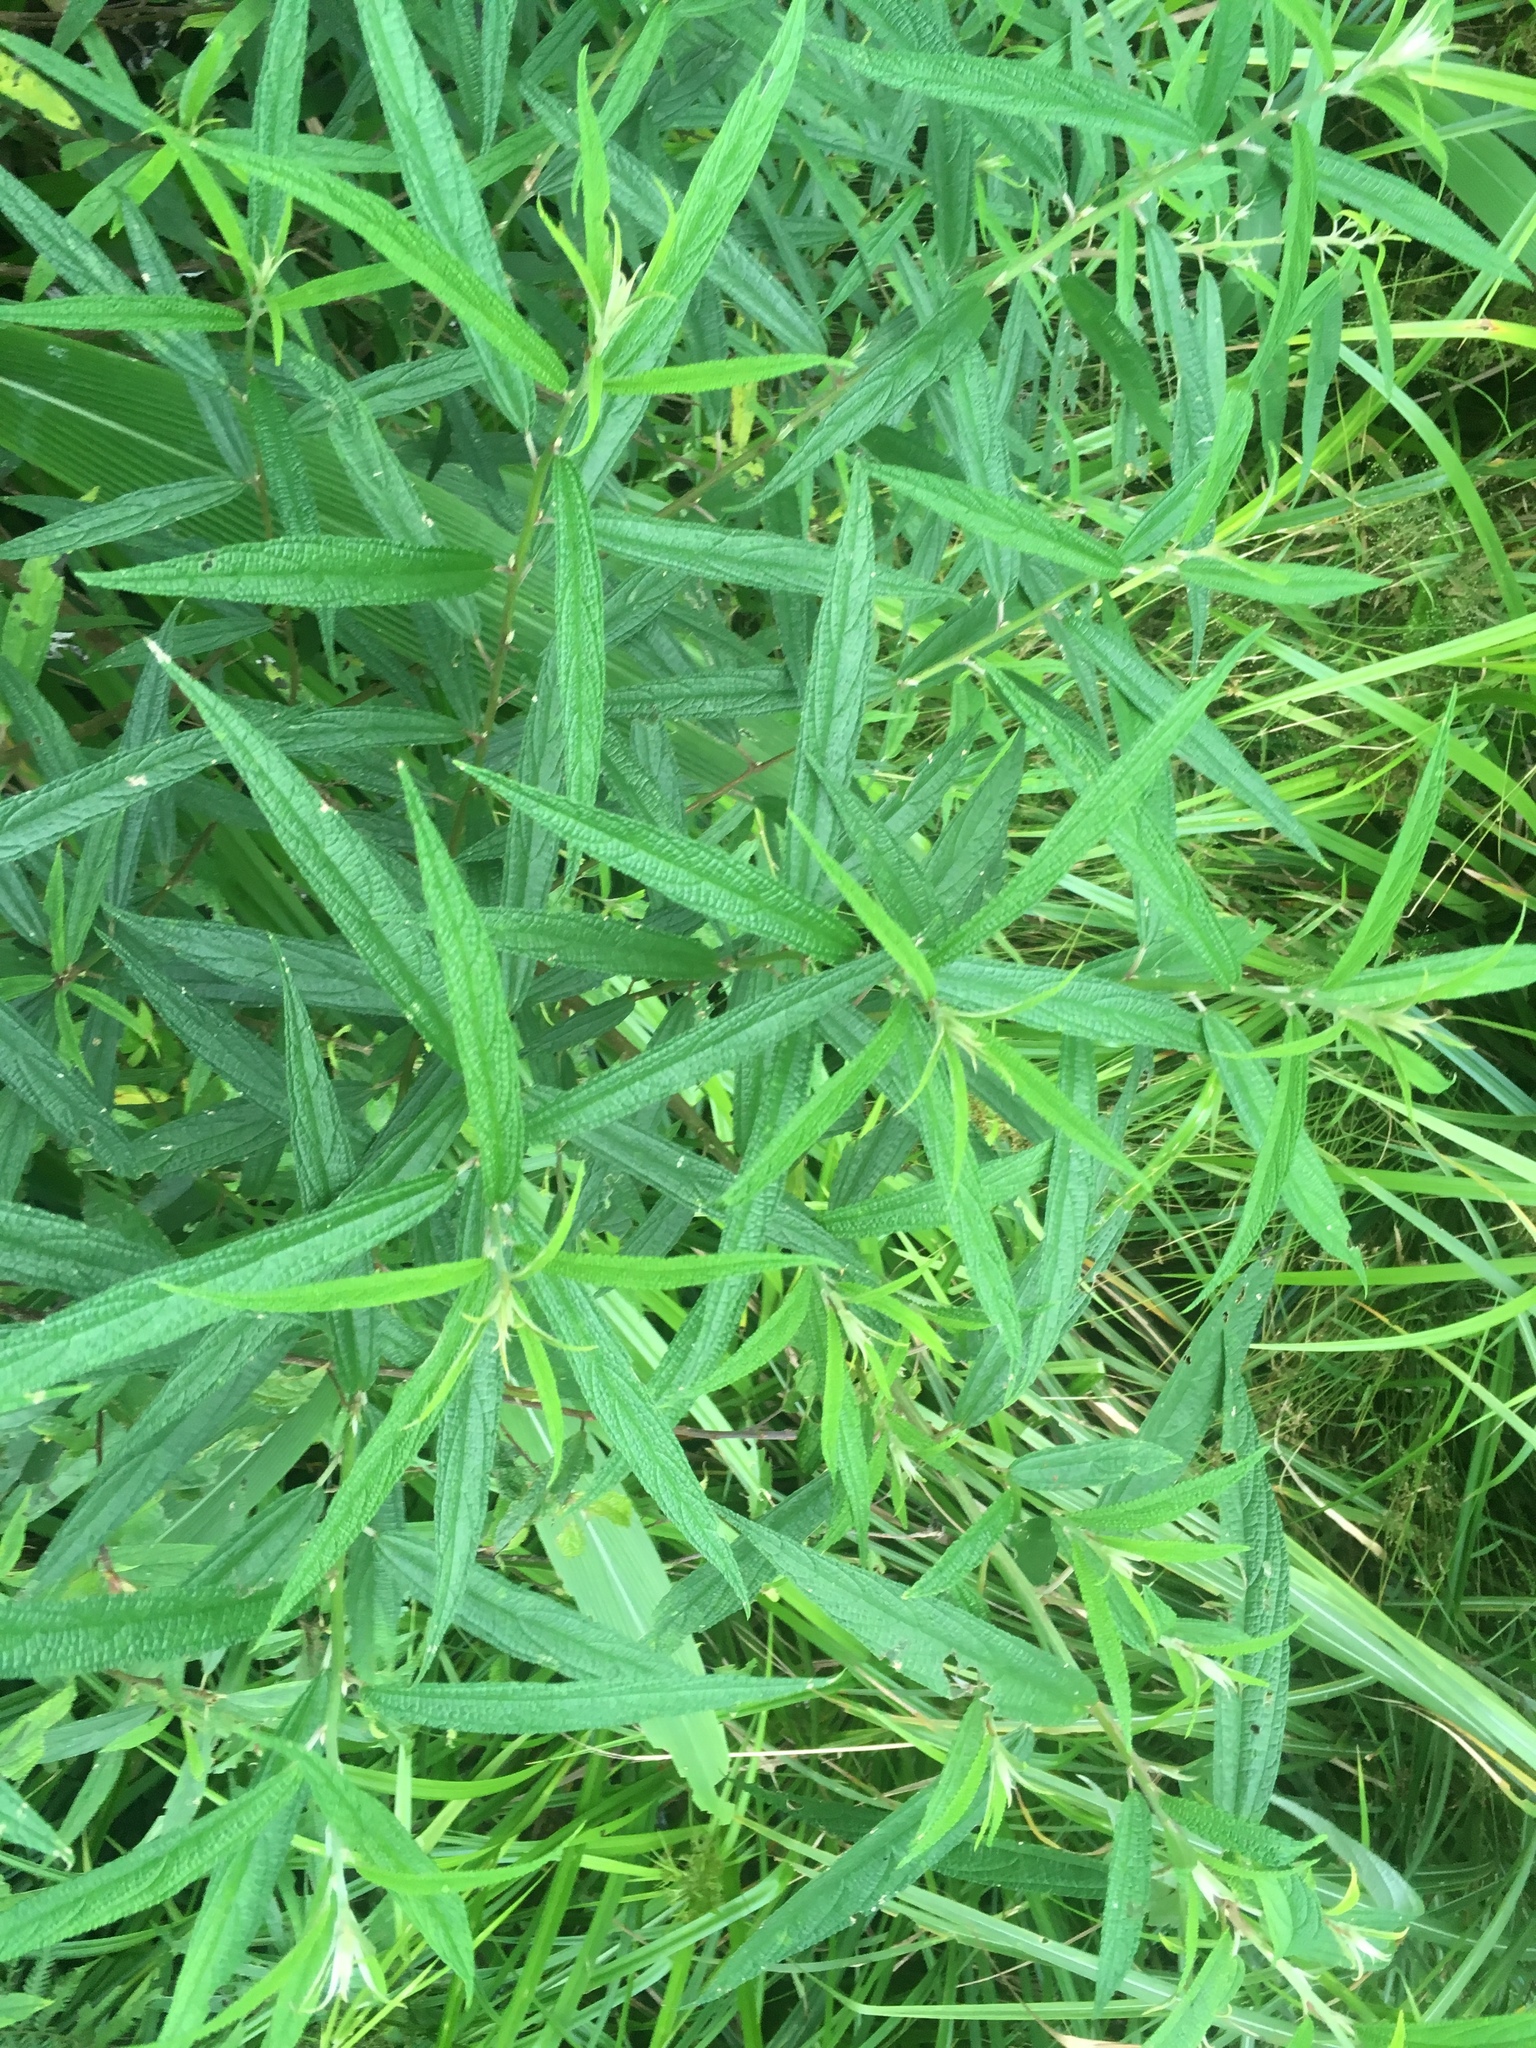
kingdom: Plantae
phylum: Tracheophyta
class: Magnoliopsida
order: Rosales
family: Urticaceae
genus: Debregeasia
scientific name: Debregeasia orientalis
